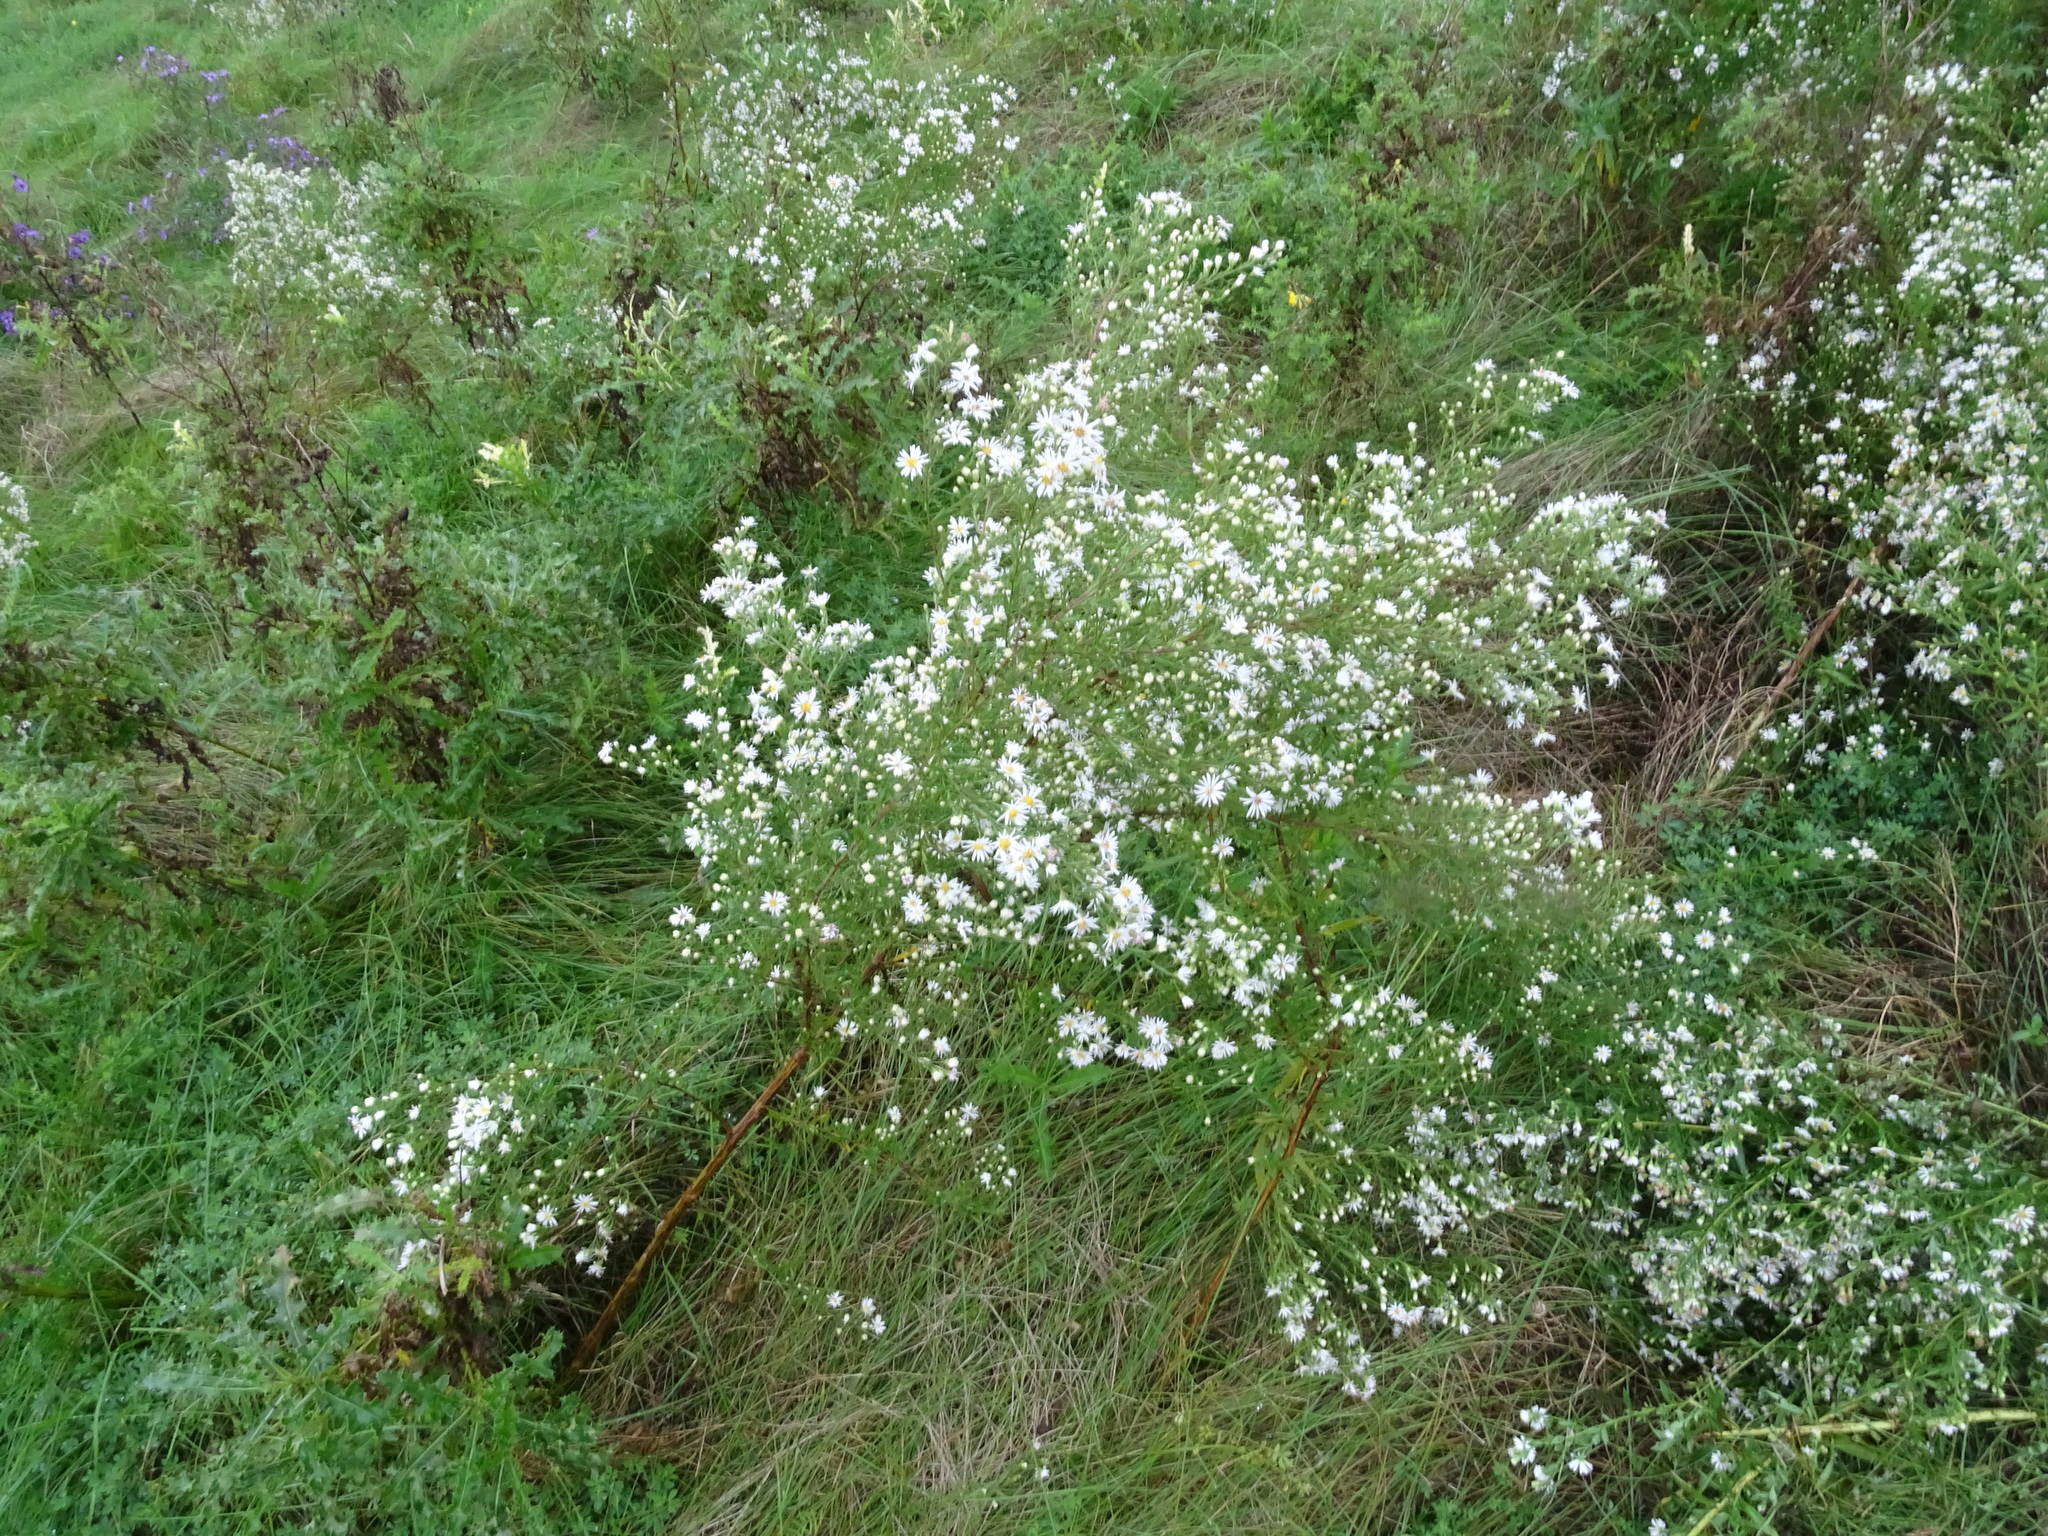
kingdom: Plantae
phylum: Tracheophyta
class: Magnoliopsida
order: Asterales
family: Asteraceae
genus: Symphyotrichum
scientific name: Symphyotrichum lanceolatum
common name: Panicled aster
